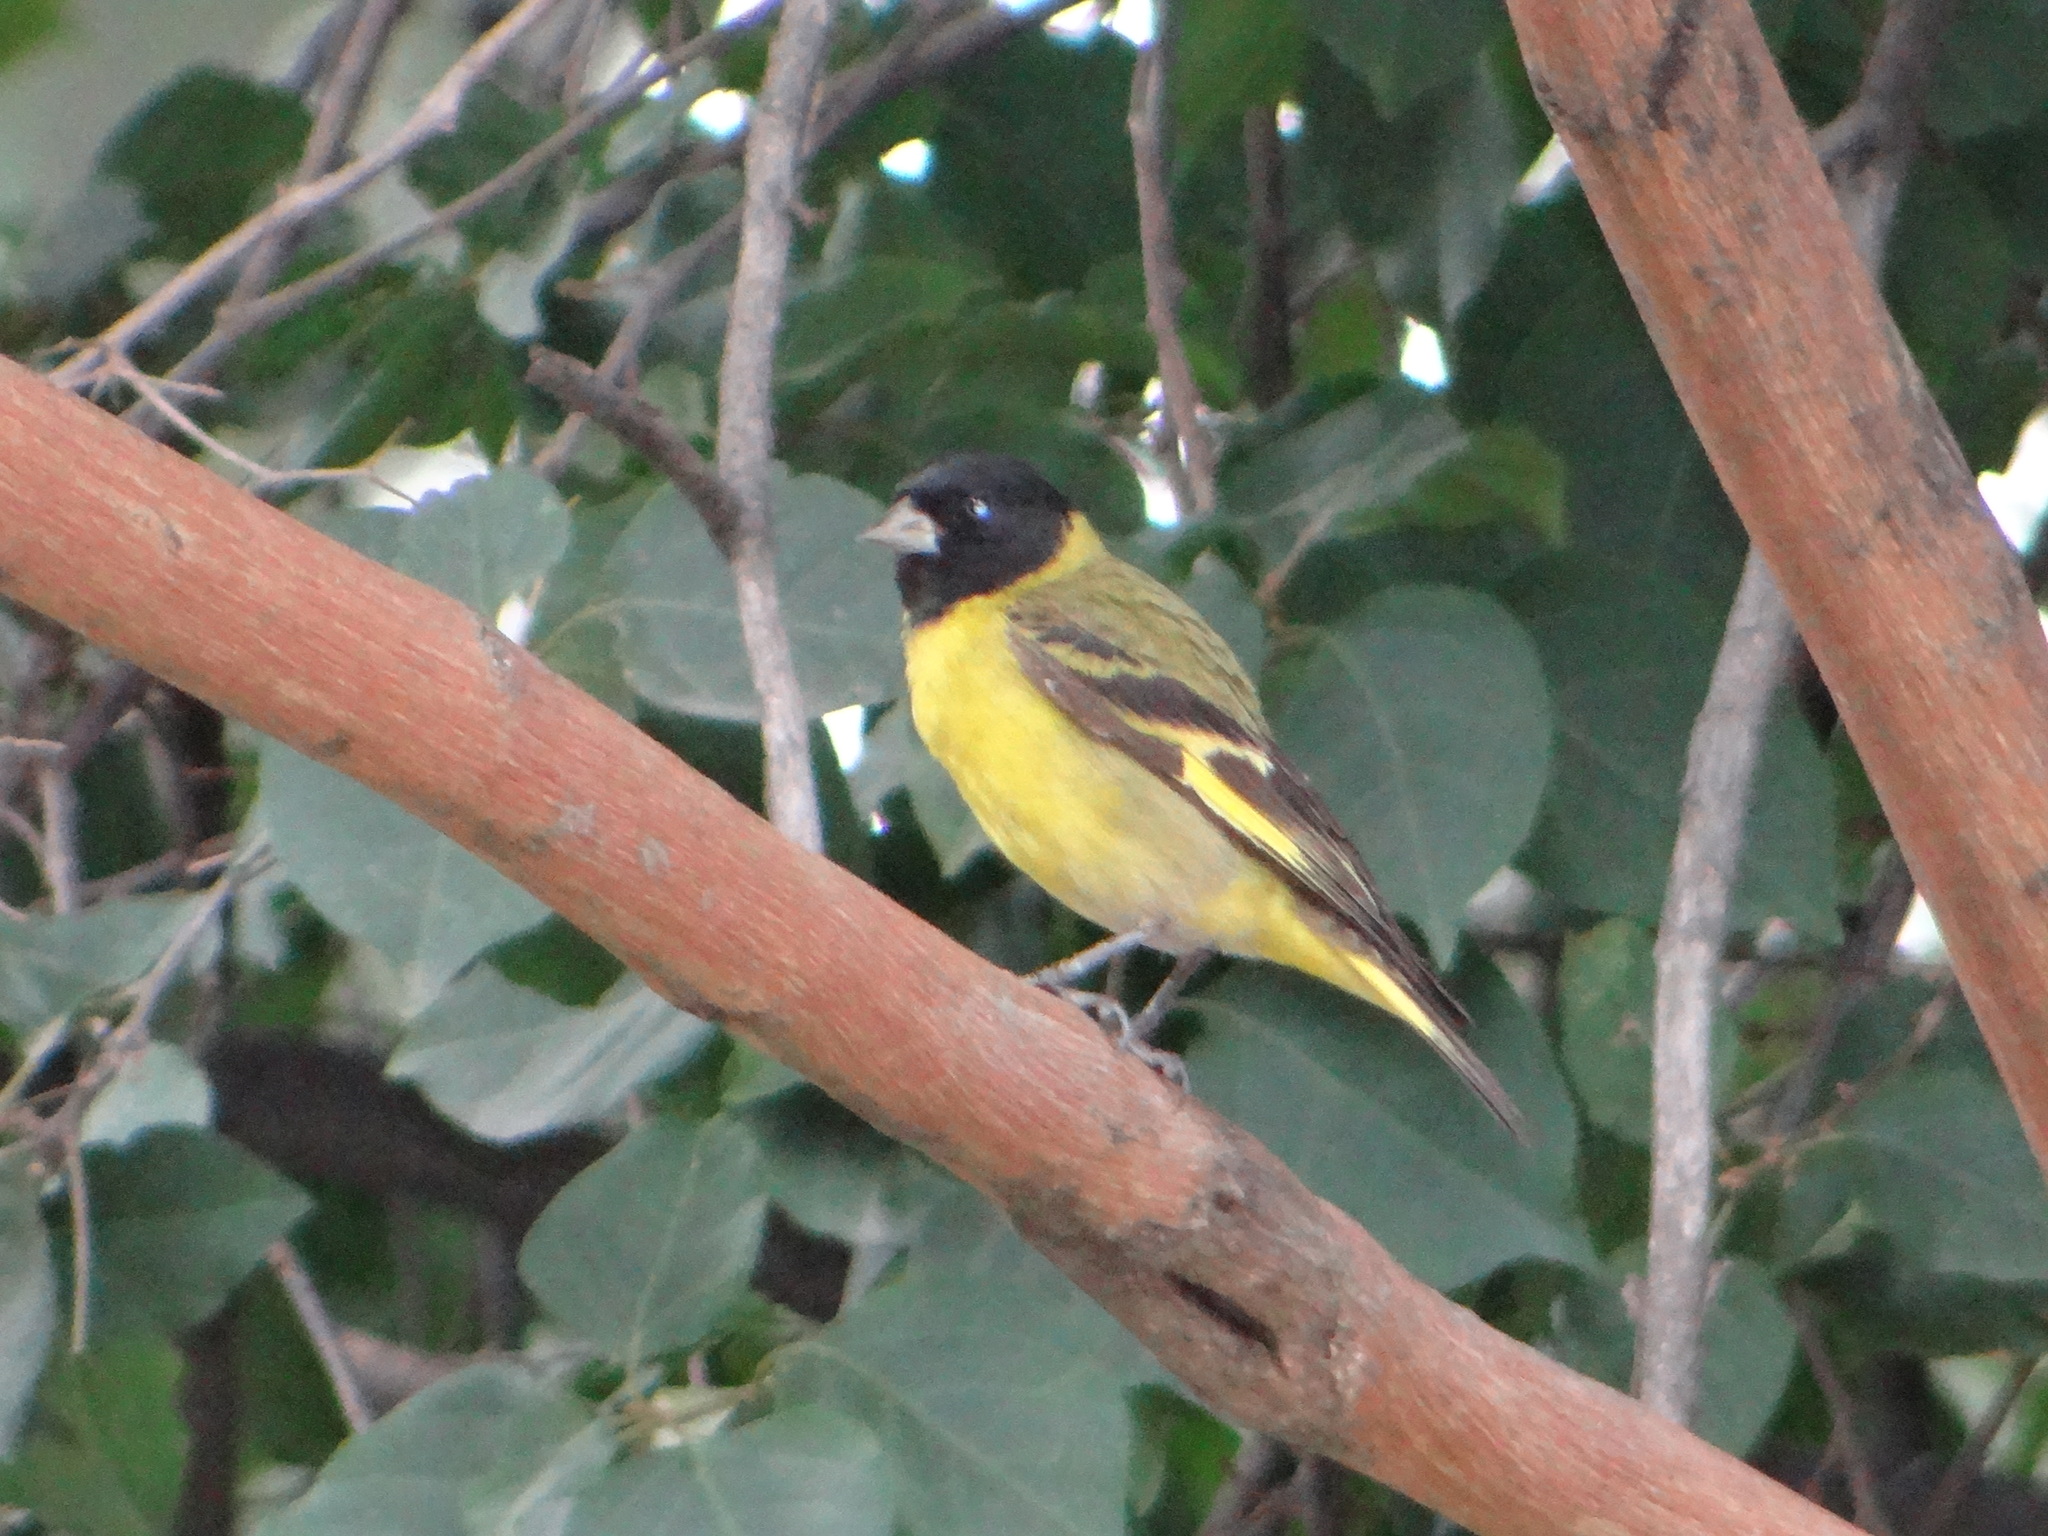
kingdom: Animalia
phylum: Chordata
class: Aves
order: Passeriformes
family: Fringillidae
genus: Spinus
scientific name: Spinus magellanicus
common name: Hooded siskin
